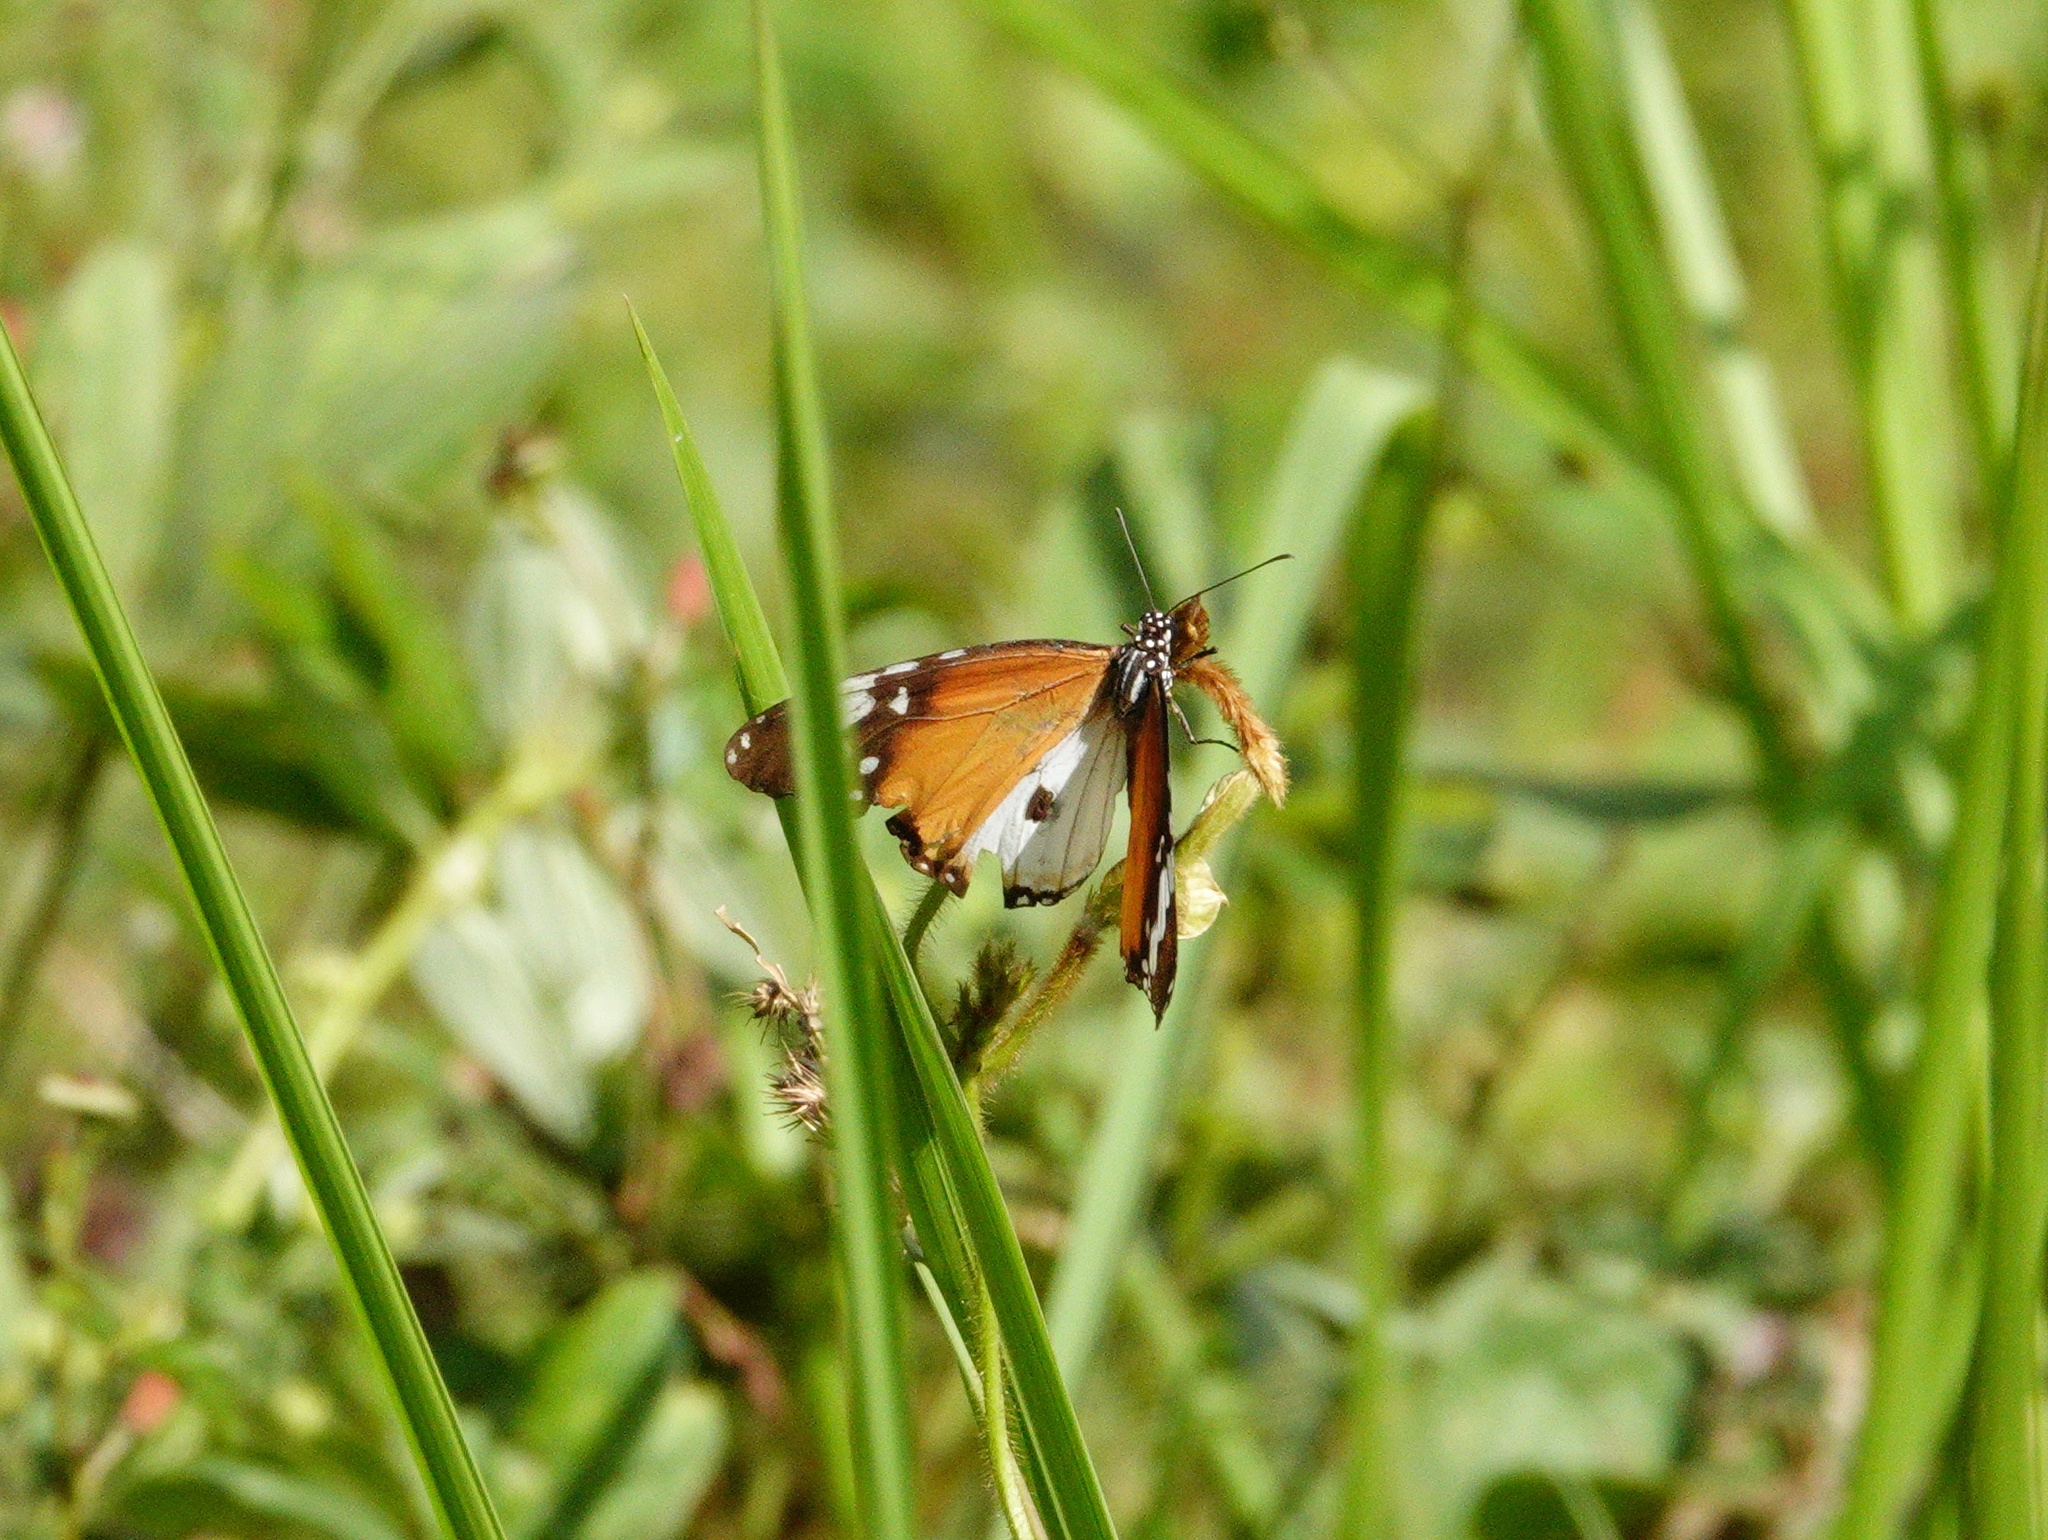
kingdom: Animalia
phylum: Arthropoda
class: Insecta
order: Lepidoptera
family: Nymphalidae
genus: Danaus
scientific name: Danaus chrysippus
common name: Plain tiger
